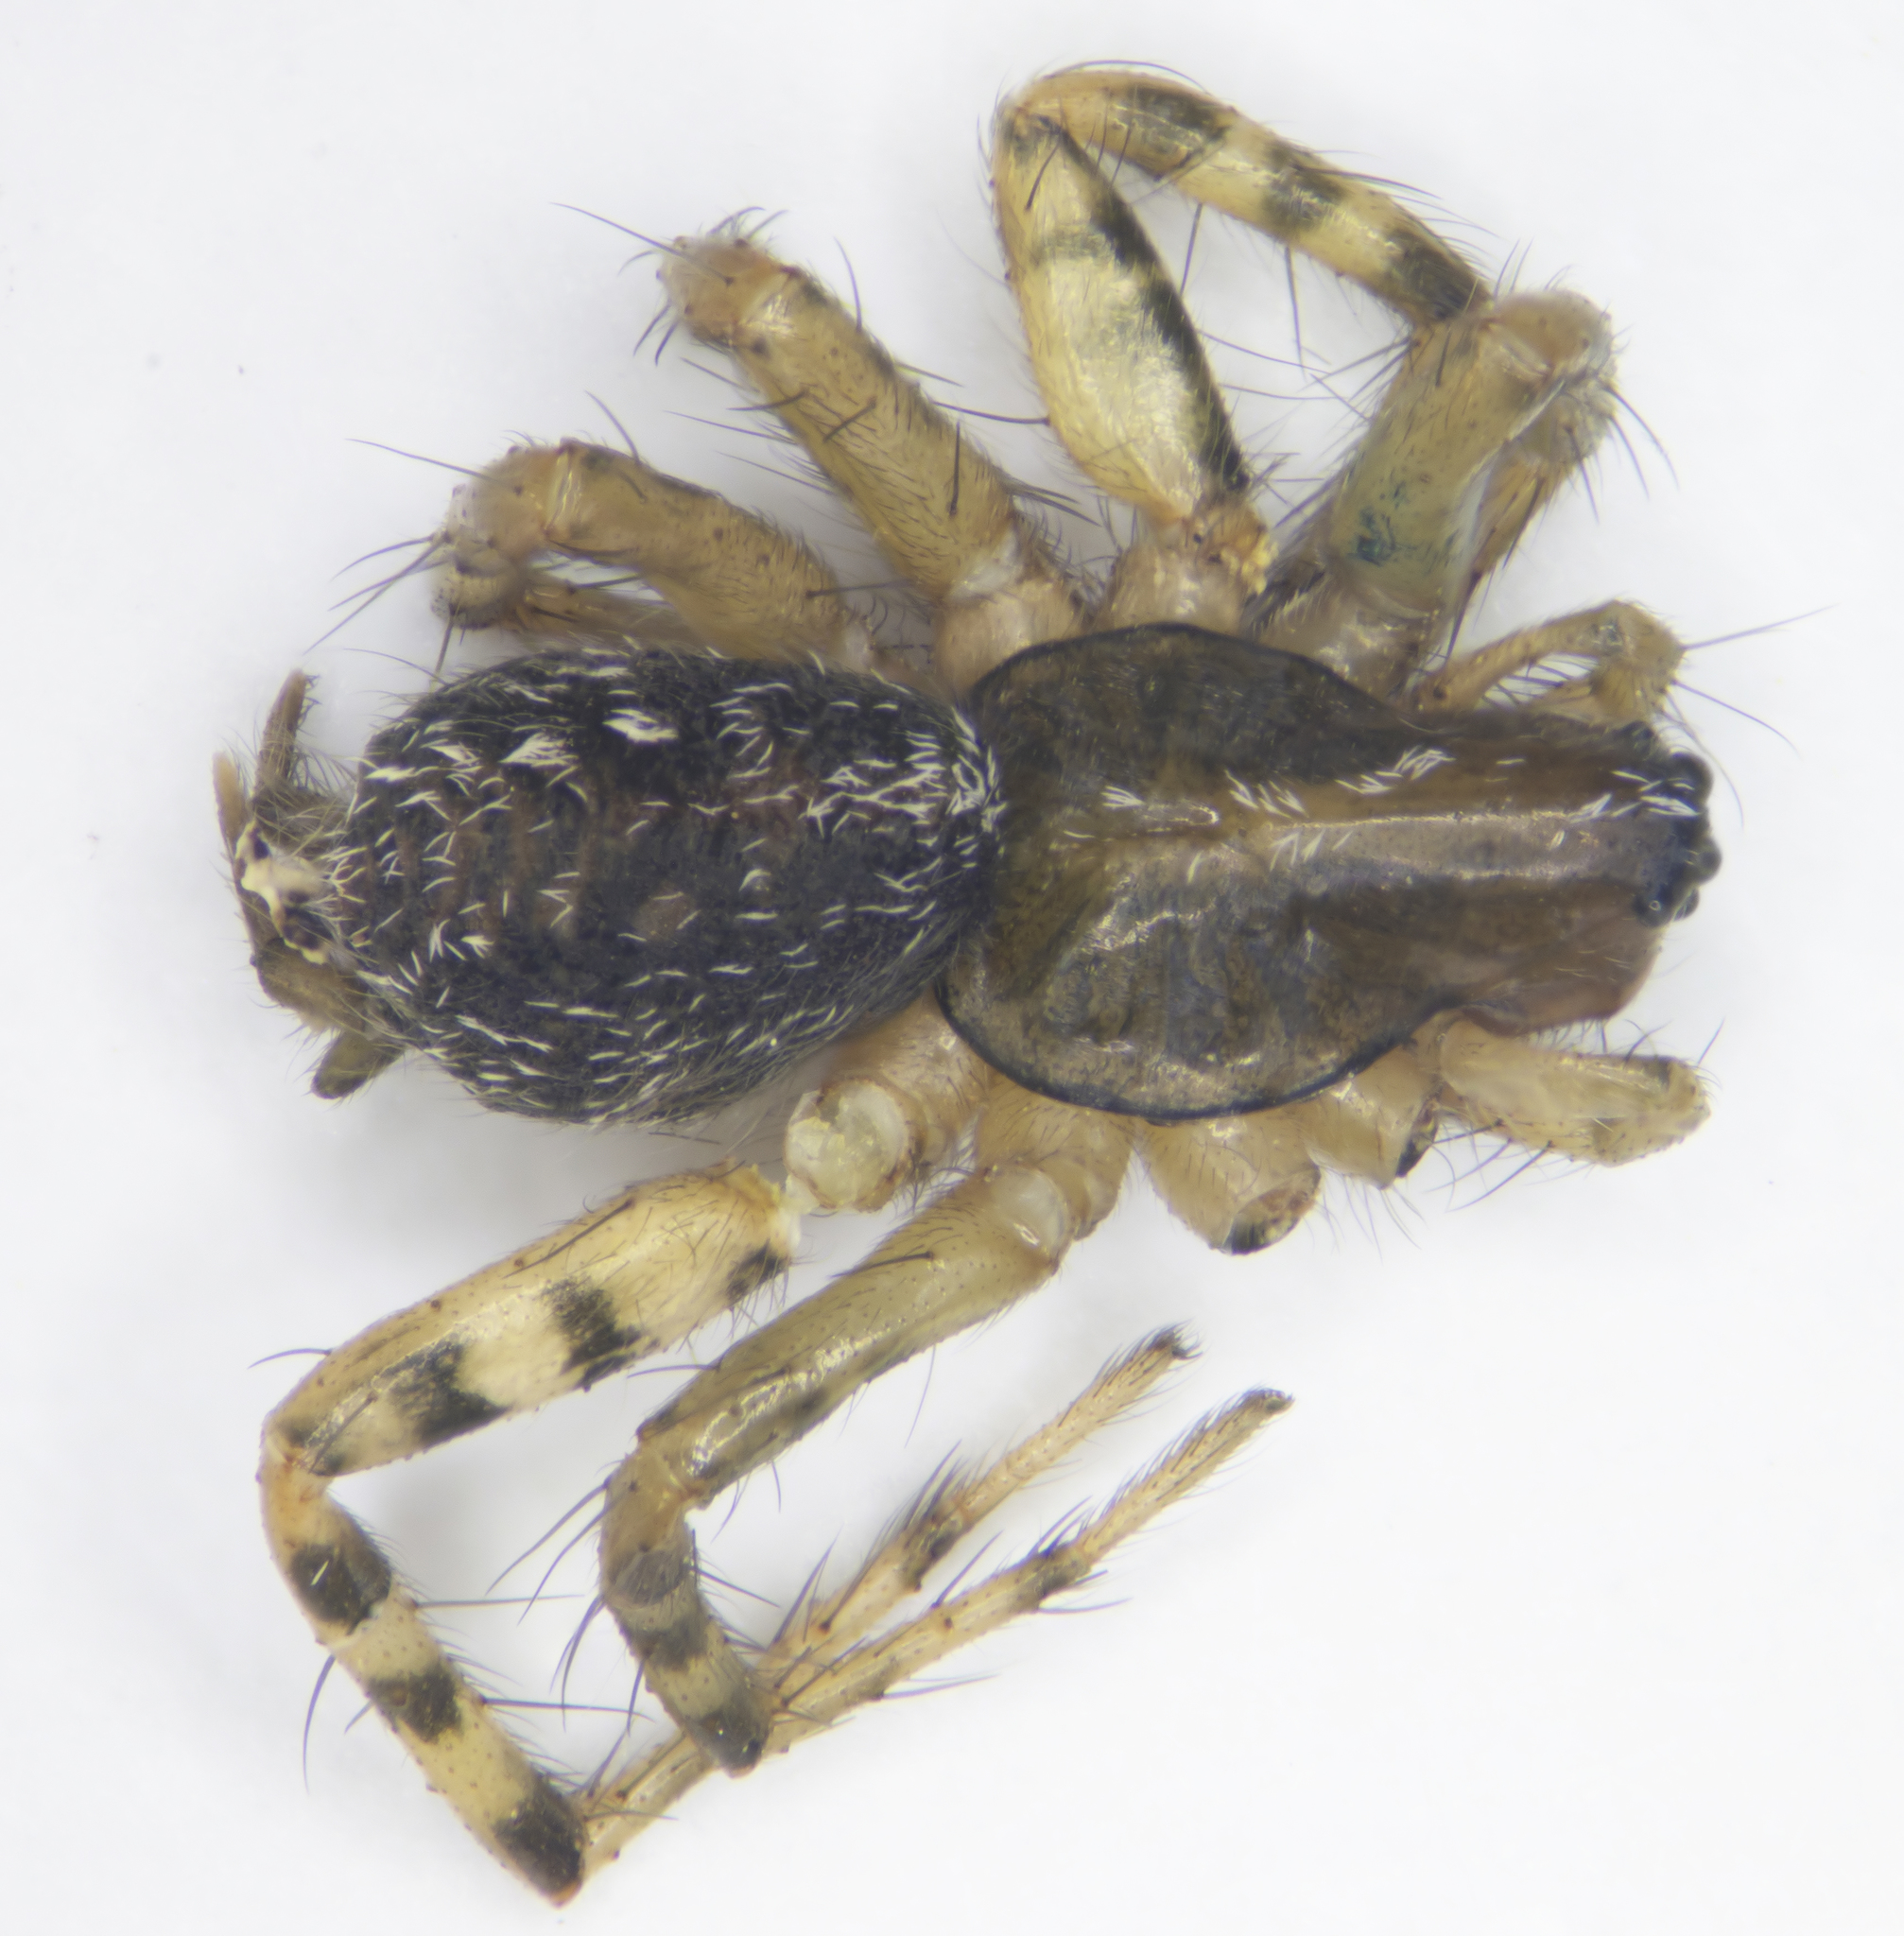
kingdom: Animalia
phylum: Arthropoda
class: Arachnida
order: Araneae
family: Agelenidae
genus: Maimuna
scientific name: Maimuna vestita
